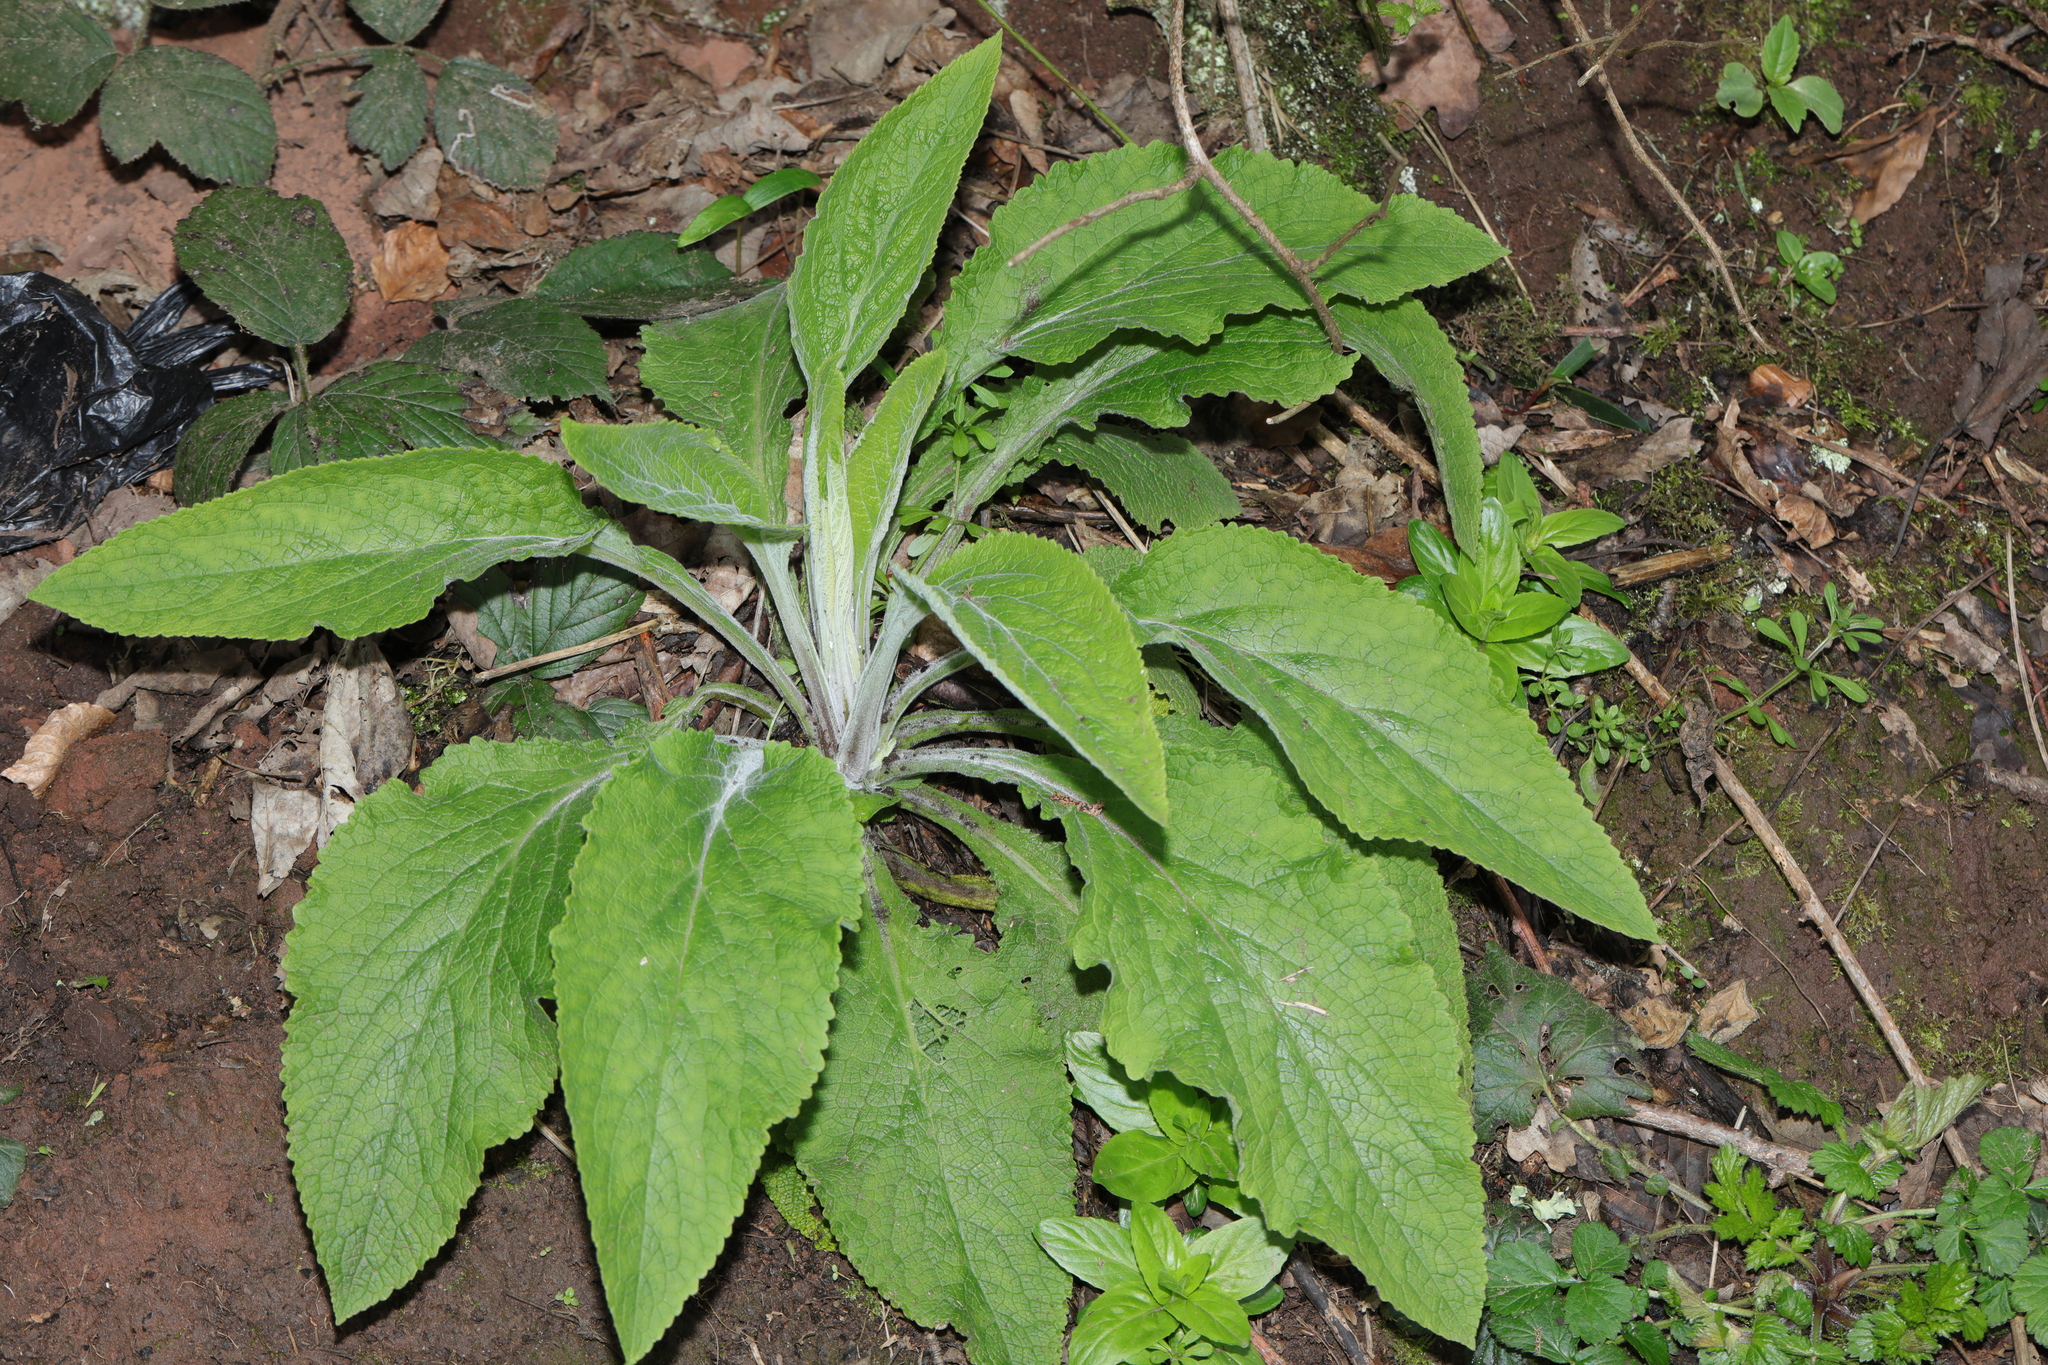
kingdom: Plantae
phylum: Tracheophyta
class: Magnoliopsida
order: Lamiales
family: Plantaginaceae
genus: Digitalis
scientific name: Digitalis purpurea
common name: Foxglove
